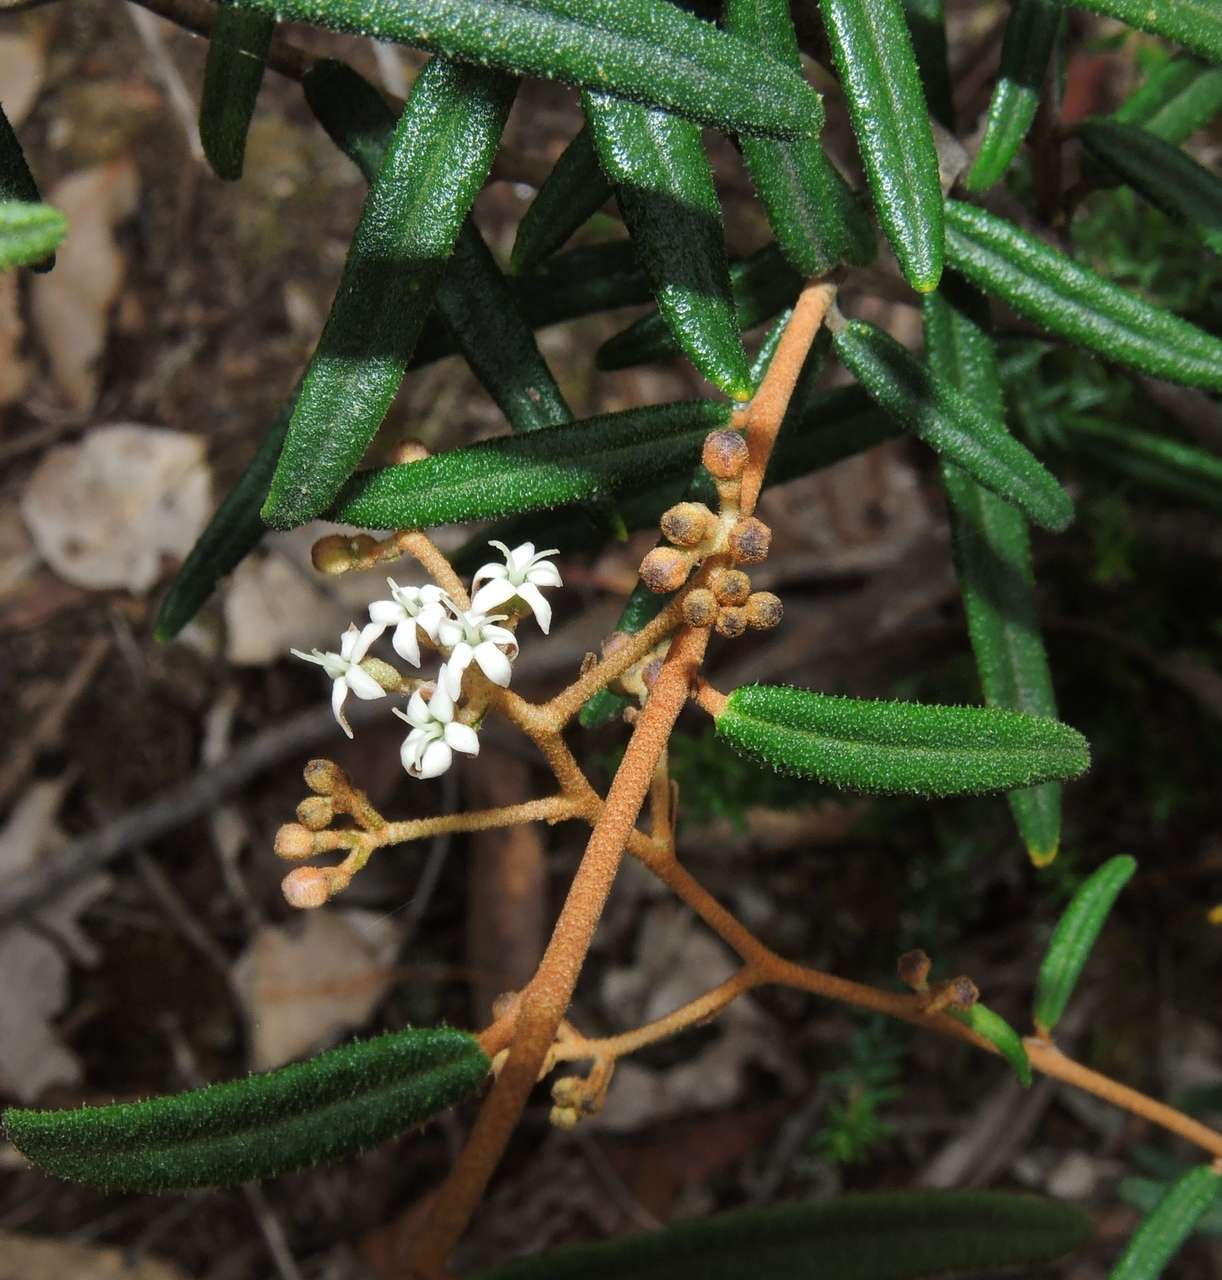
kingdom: Plantae
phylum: Tracheophyta
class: Magnoliopsida
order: Apiales
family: Araliaceae
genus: Astrotricha
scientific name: Astrotricha ledifolia
